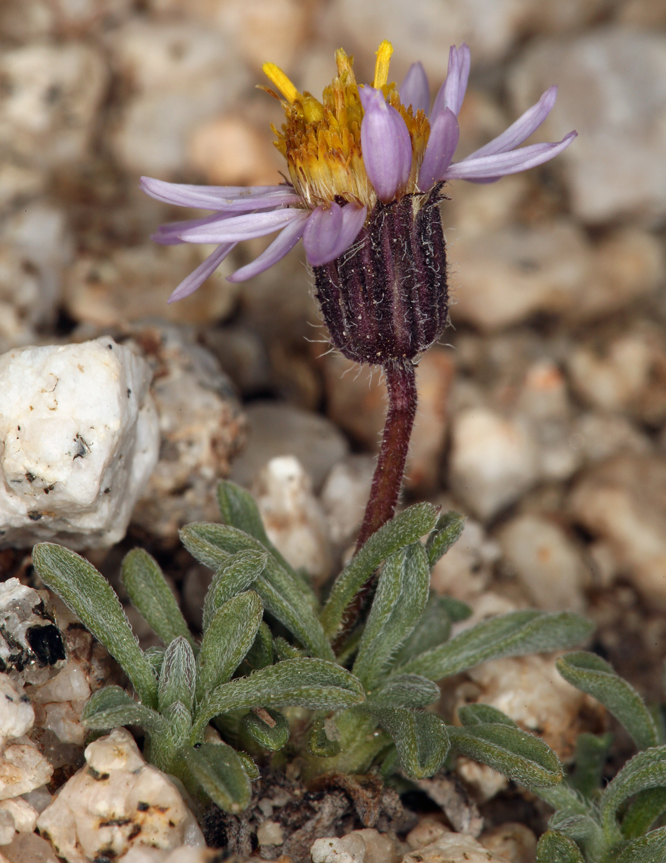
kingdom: Plantae
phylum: Tracheophyta
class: Magnoliopsida
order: Asterales
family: Asteraceae
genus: Erigeron
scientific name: Erigeron pygmaeus
